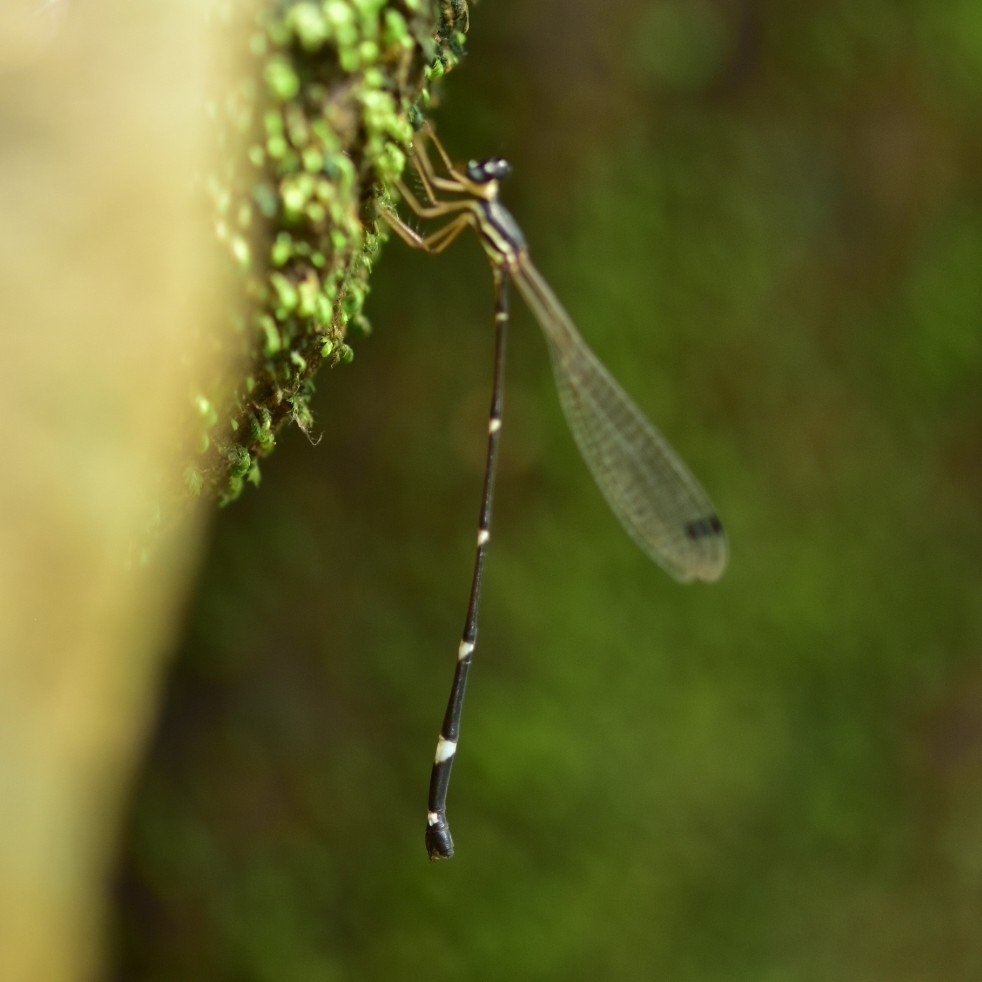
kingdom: Animalia
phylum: Arthropoda
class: Insecta
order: Odonata
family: Platystictidae
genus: Protosticta
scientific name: Protosticta gravelyi
